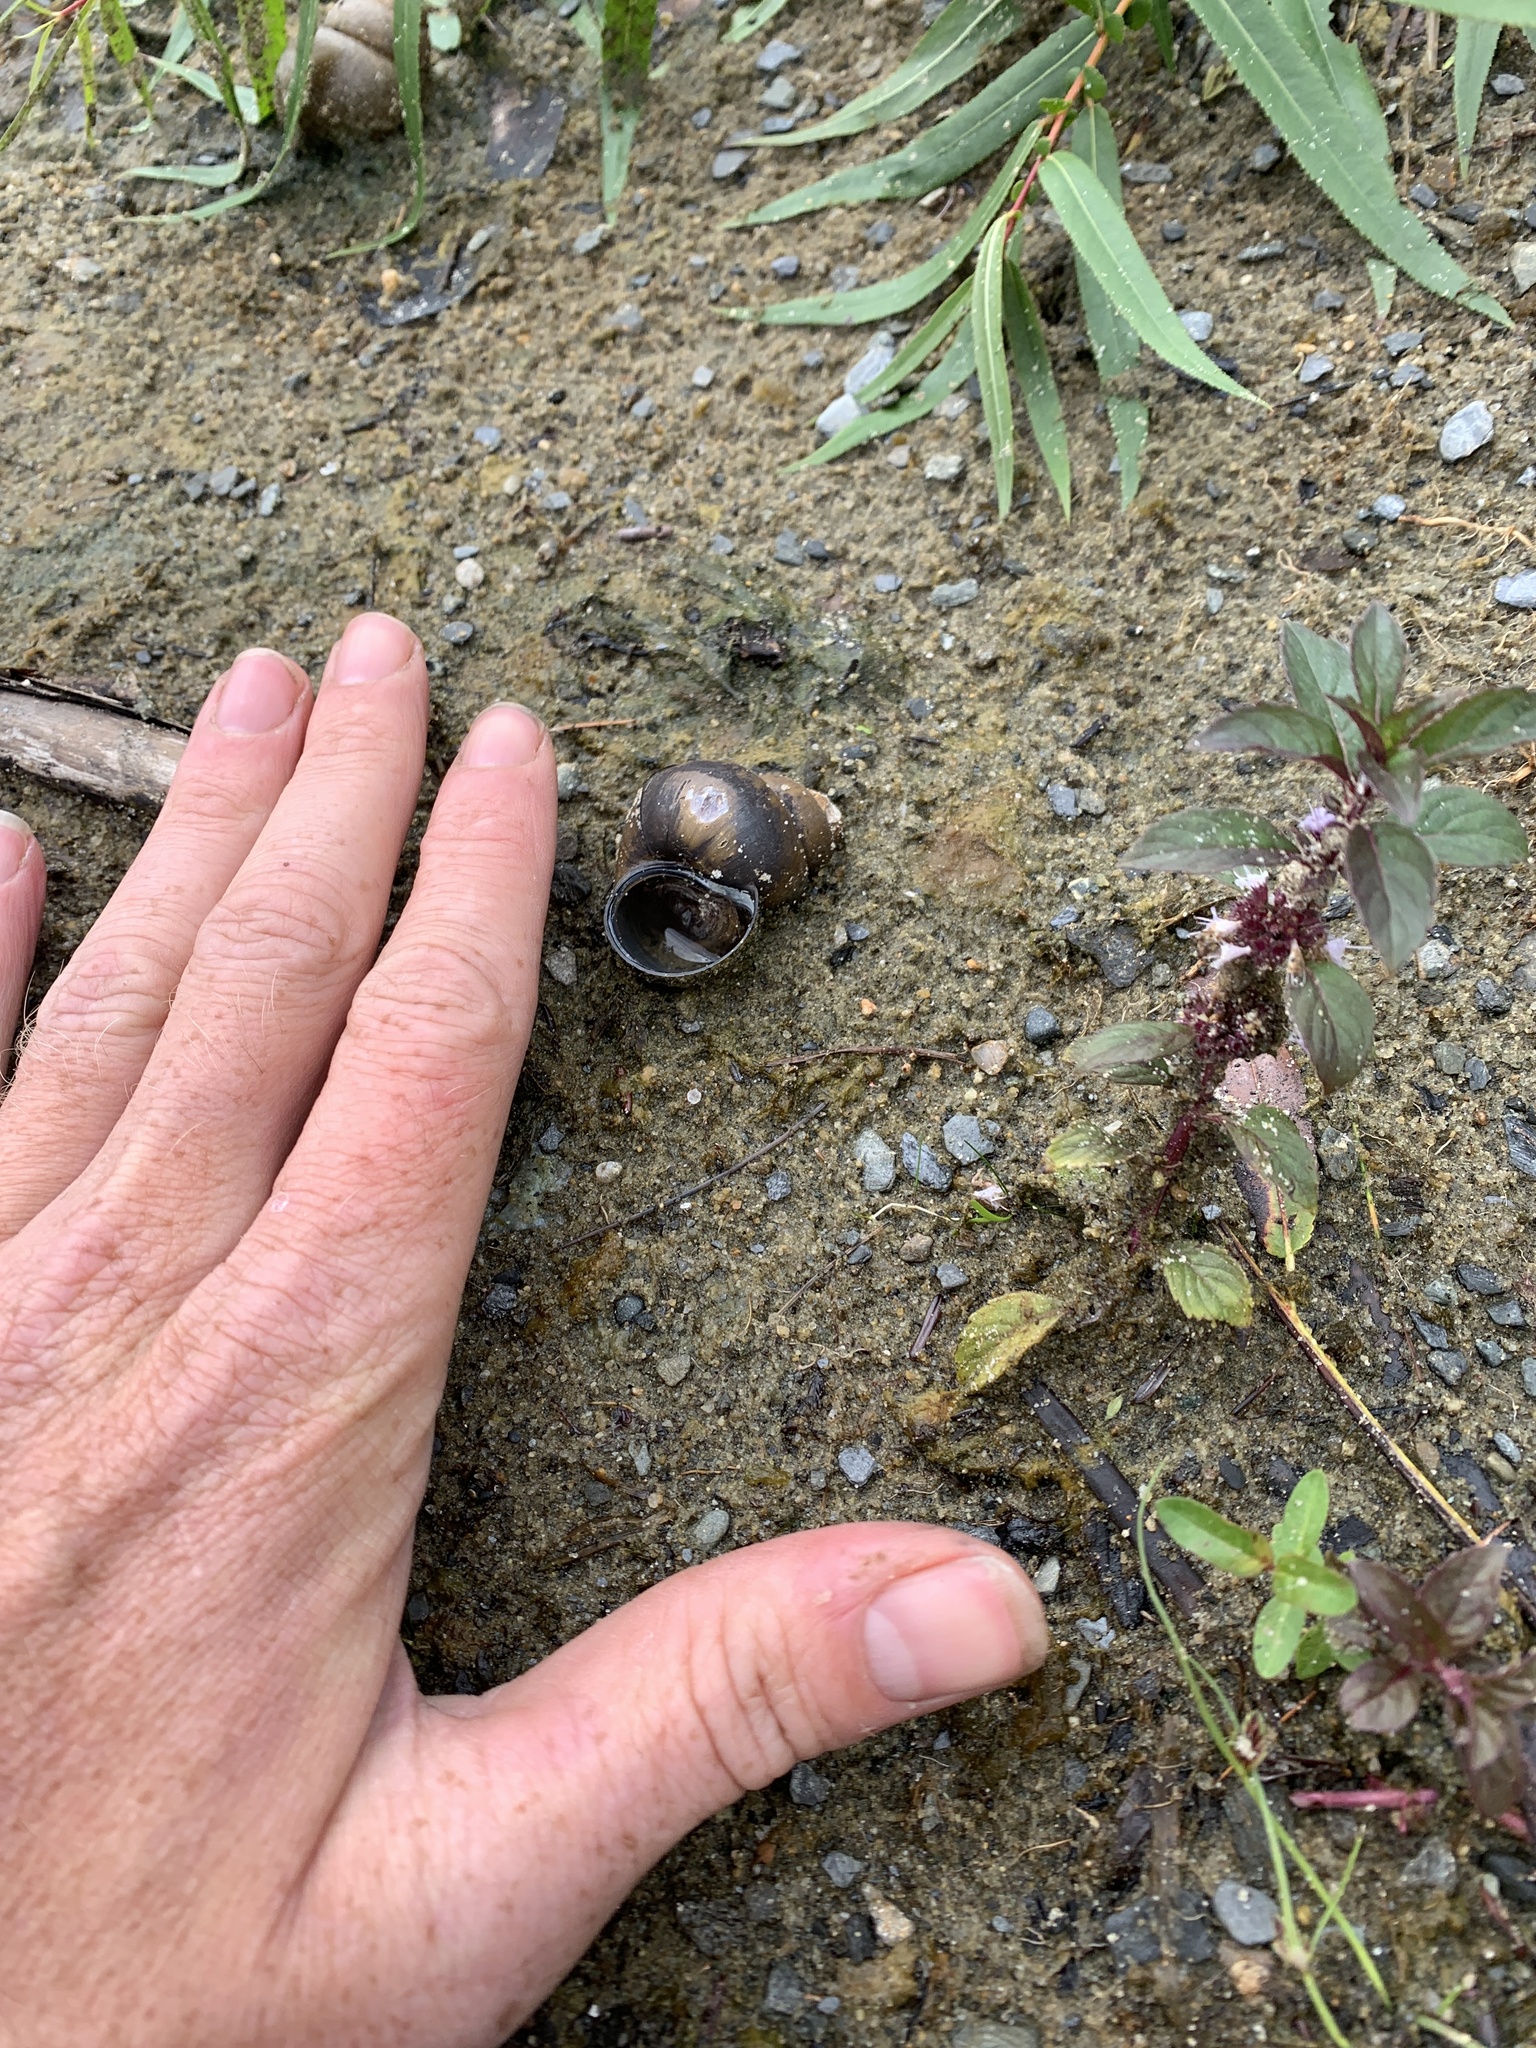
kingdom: Animalia
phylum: Mollusca
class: Gastropoda
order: Architaenioglossa
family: Viviparidae
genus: Cipangopaludina
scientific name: Cipangopaludina chinensis
